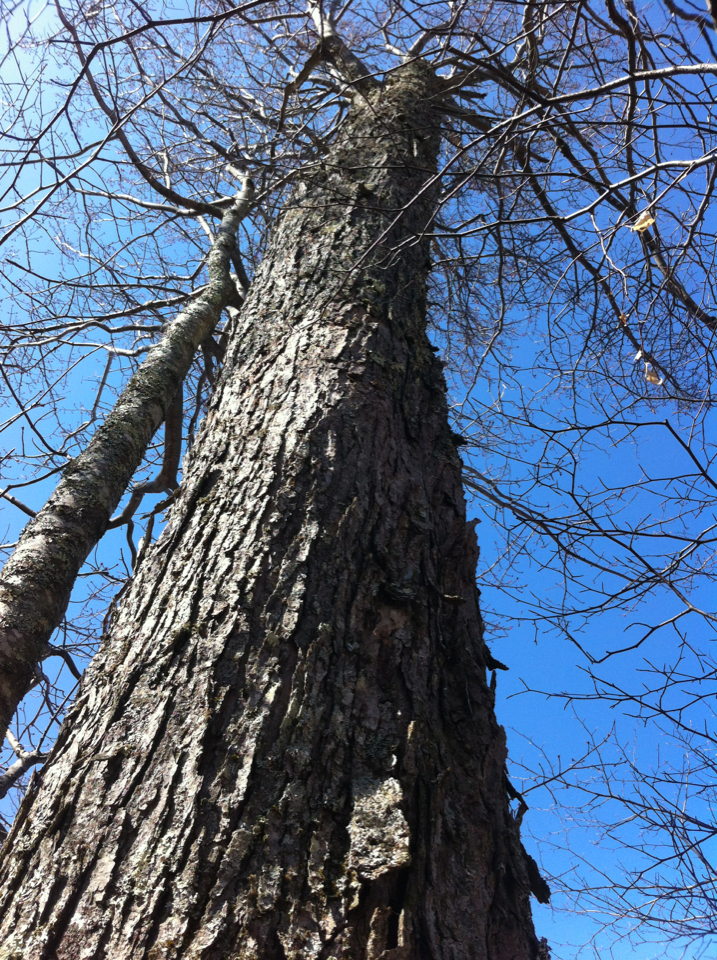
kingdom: Plantae
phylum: Tracheophyta
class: Magnoliopsida
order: Sapindales
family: Sapindaceae
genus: Acer
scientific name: Acer saccharum
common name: Sugar maple
